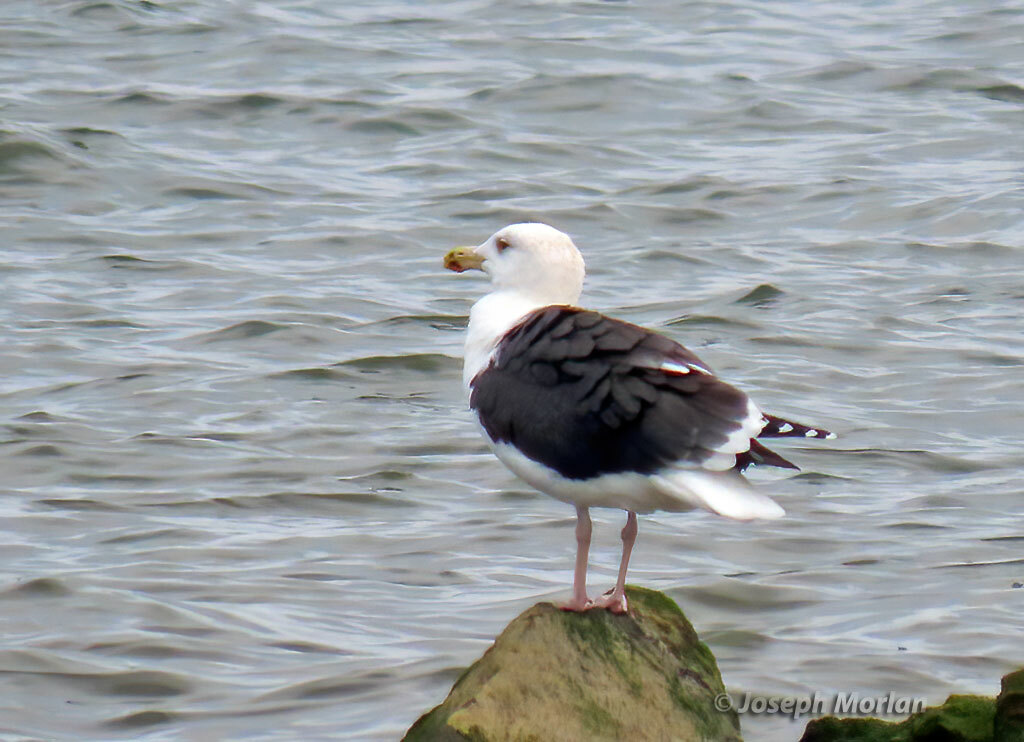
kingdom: Animalia
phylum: Chordata
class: Aves
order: Charadriiformes
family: Laridae
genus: Larus
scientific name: Larus marinus
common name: Great black-backed gull
